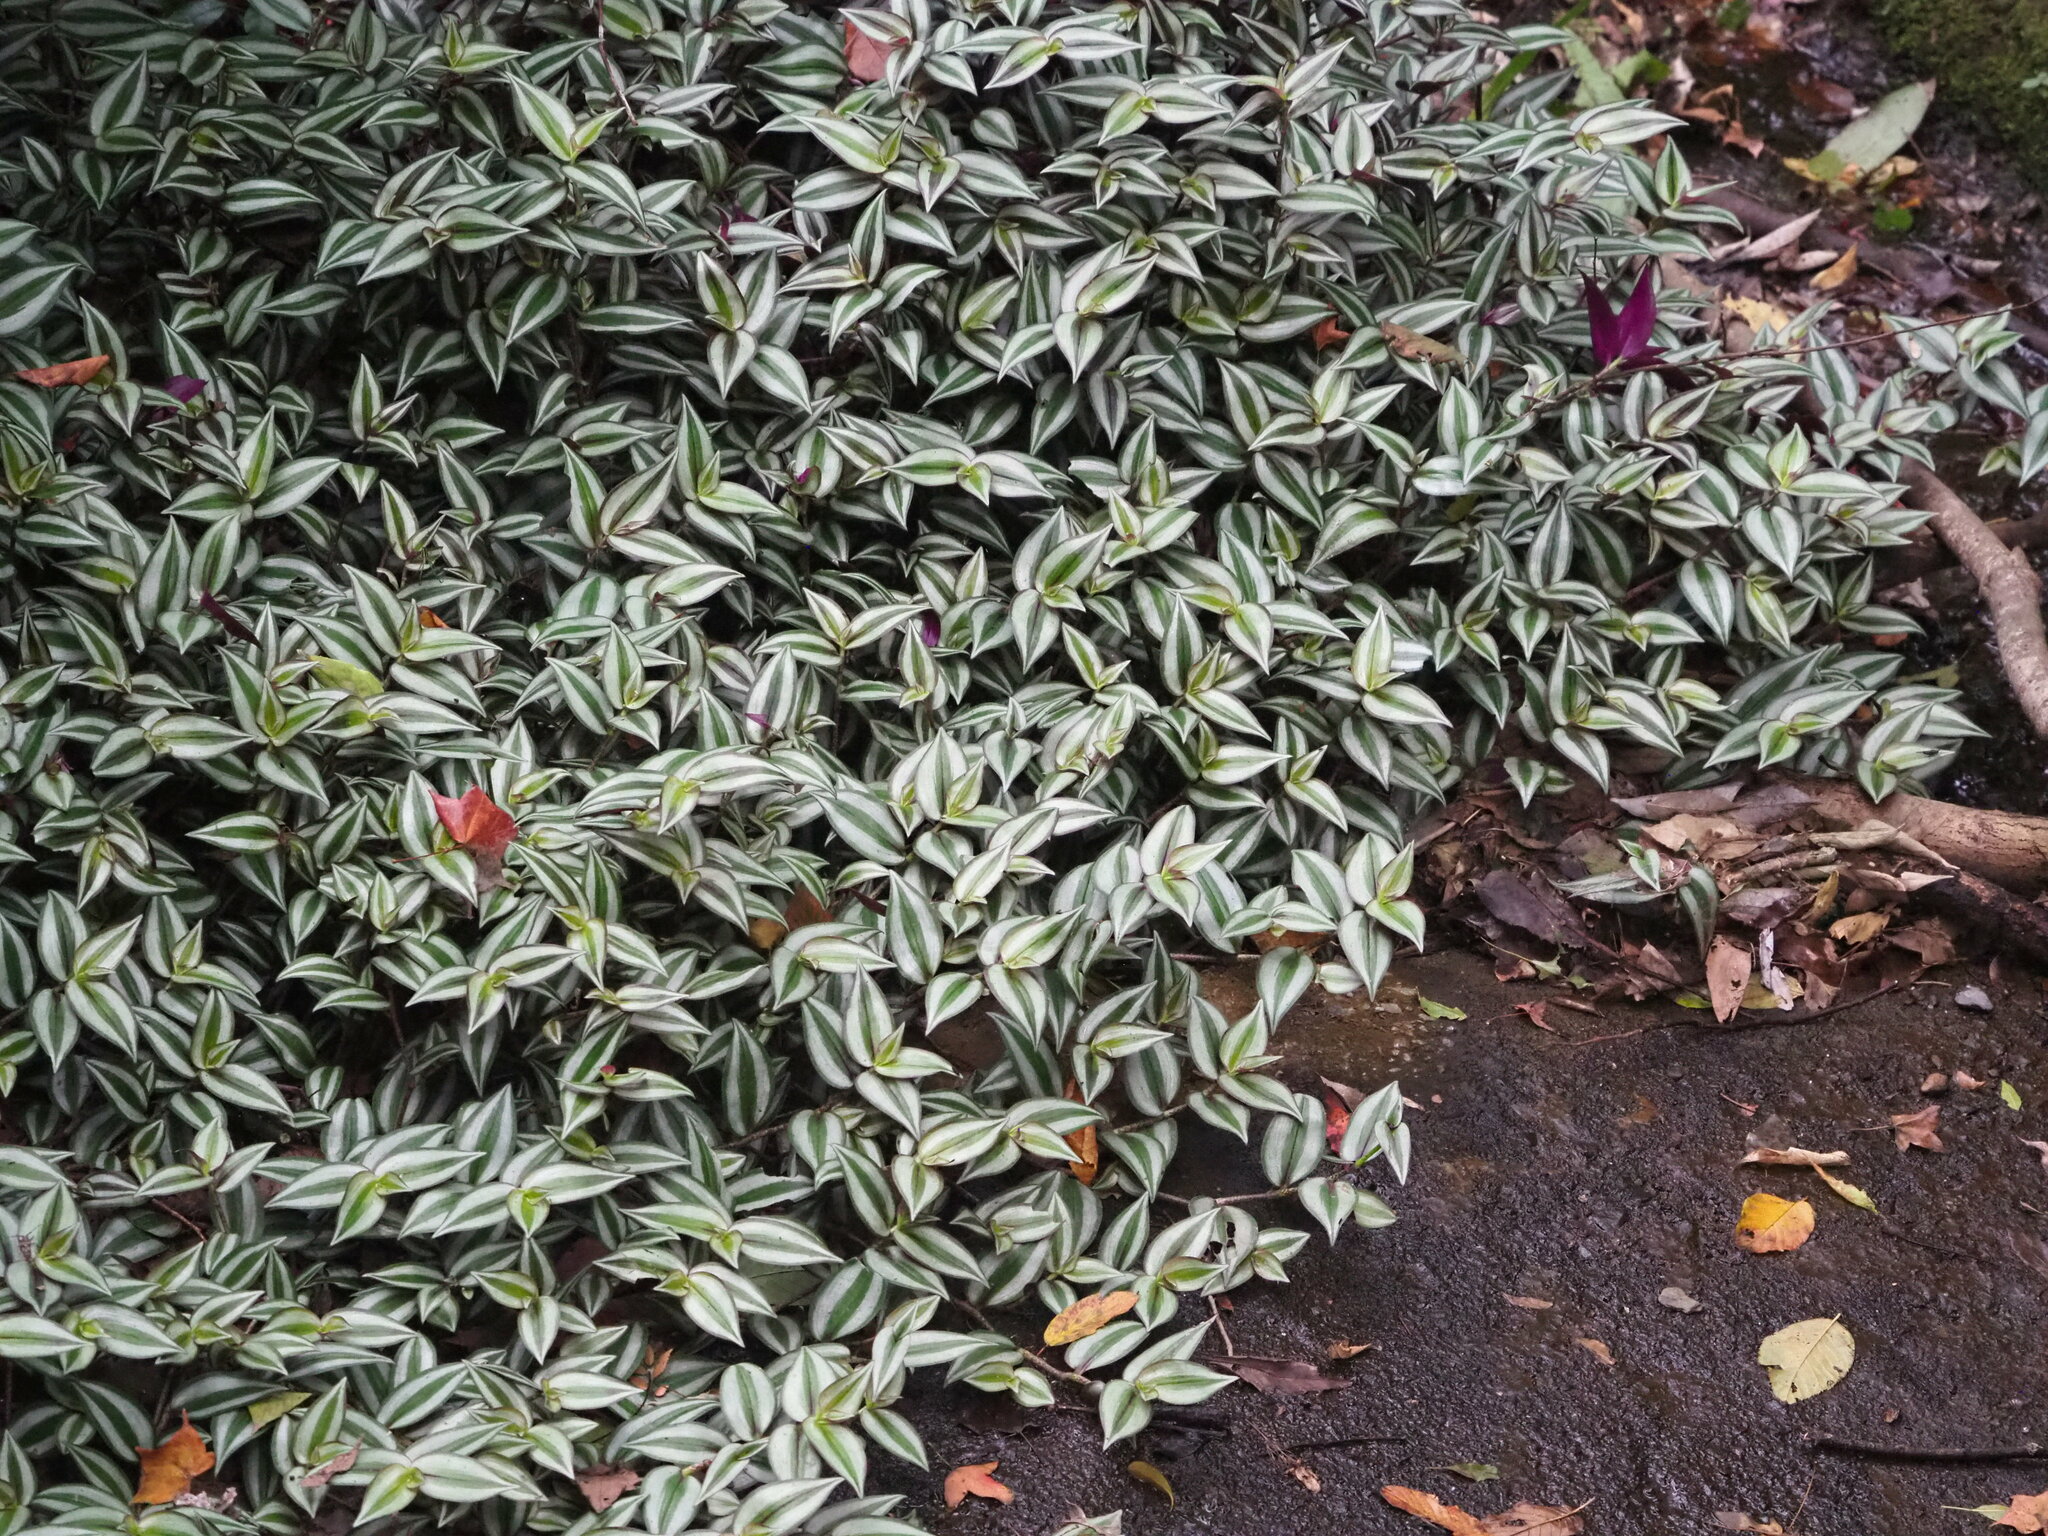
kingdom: Plantae
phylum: Tracheophyta
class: Liliopsida
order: Commelinales
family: Commelinaceae
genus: Tradescantia
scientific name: Tradescantia zebrina
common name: Inchplant
